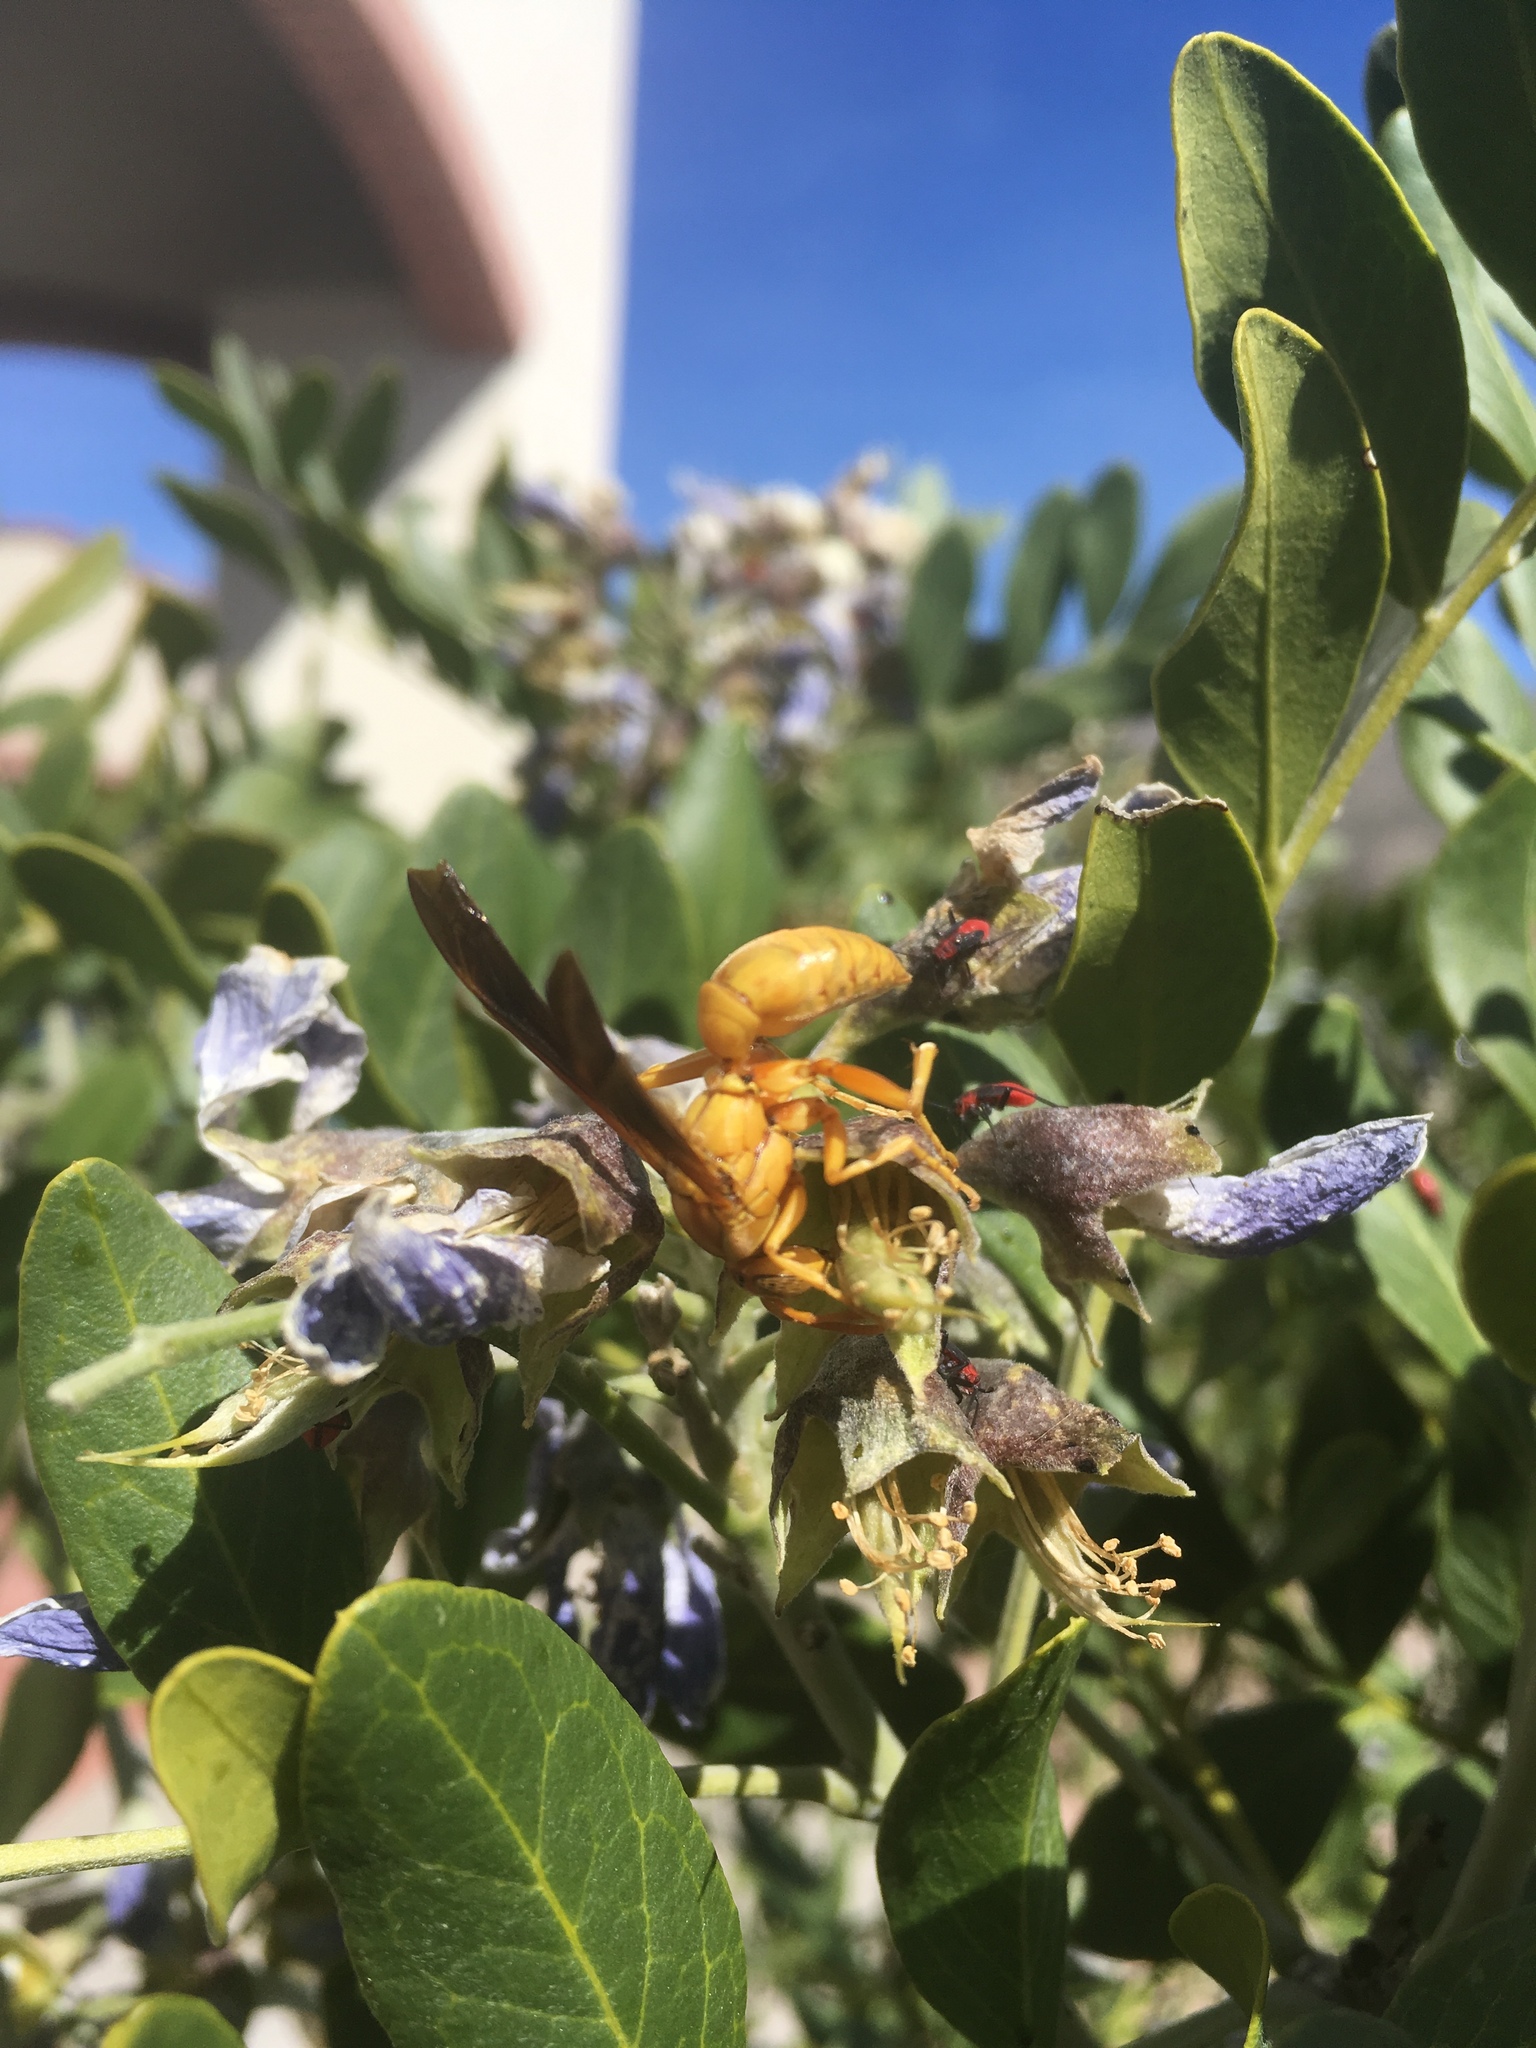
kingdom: Animalia
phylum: Arthropoda
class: Insecta
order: Hymenoptera
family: Eumenidae
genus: Polistes
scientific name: Polistes flavus
